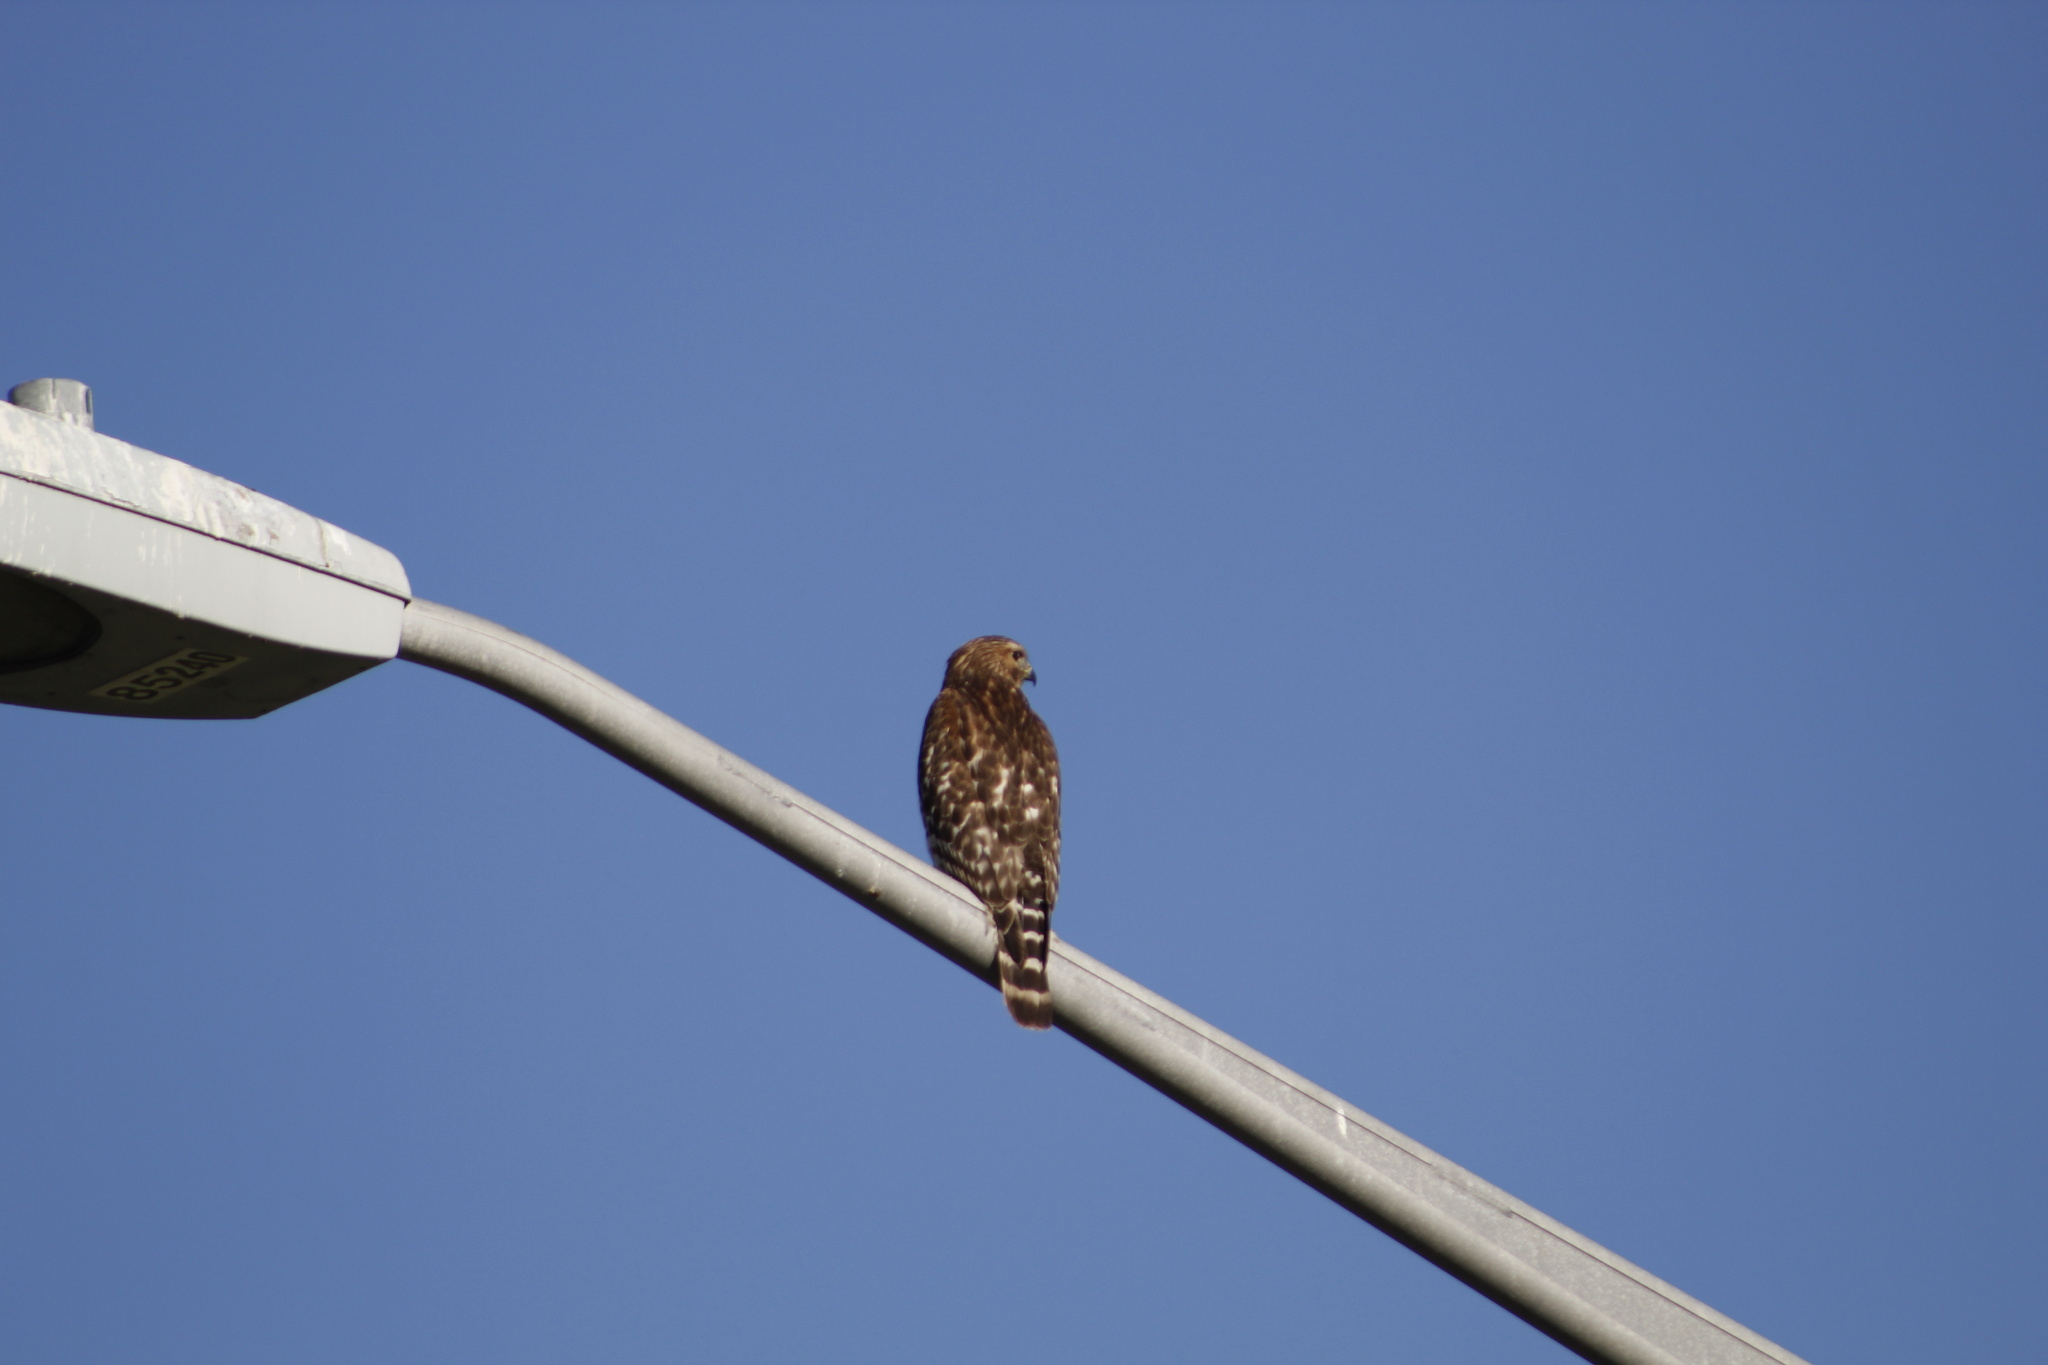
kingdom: Animalia
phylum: Chordata
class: Aves
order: Accipitriformes
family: Accipitridae
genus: Buteo
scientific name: Buteo lineatus
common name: Red-shouldered hawk
